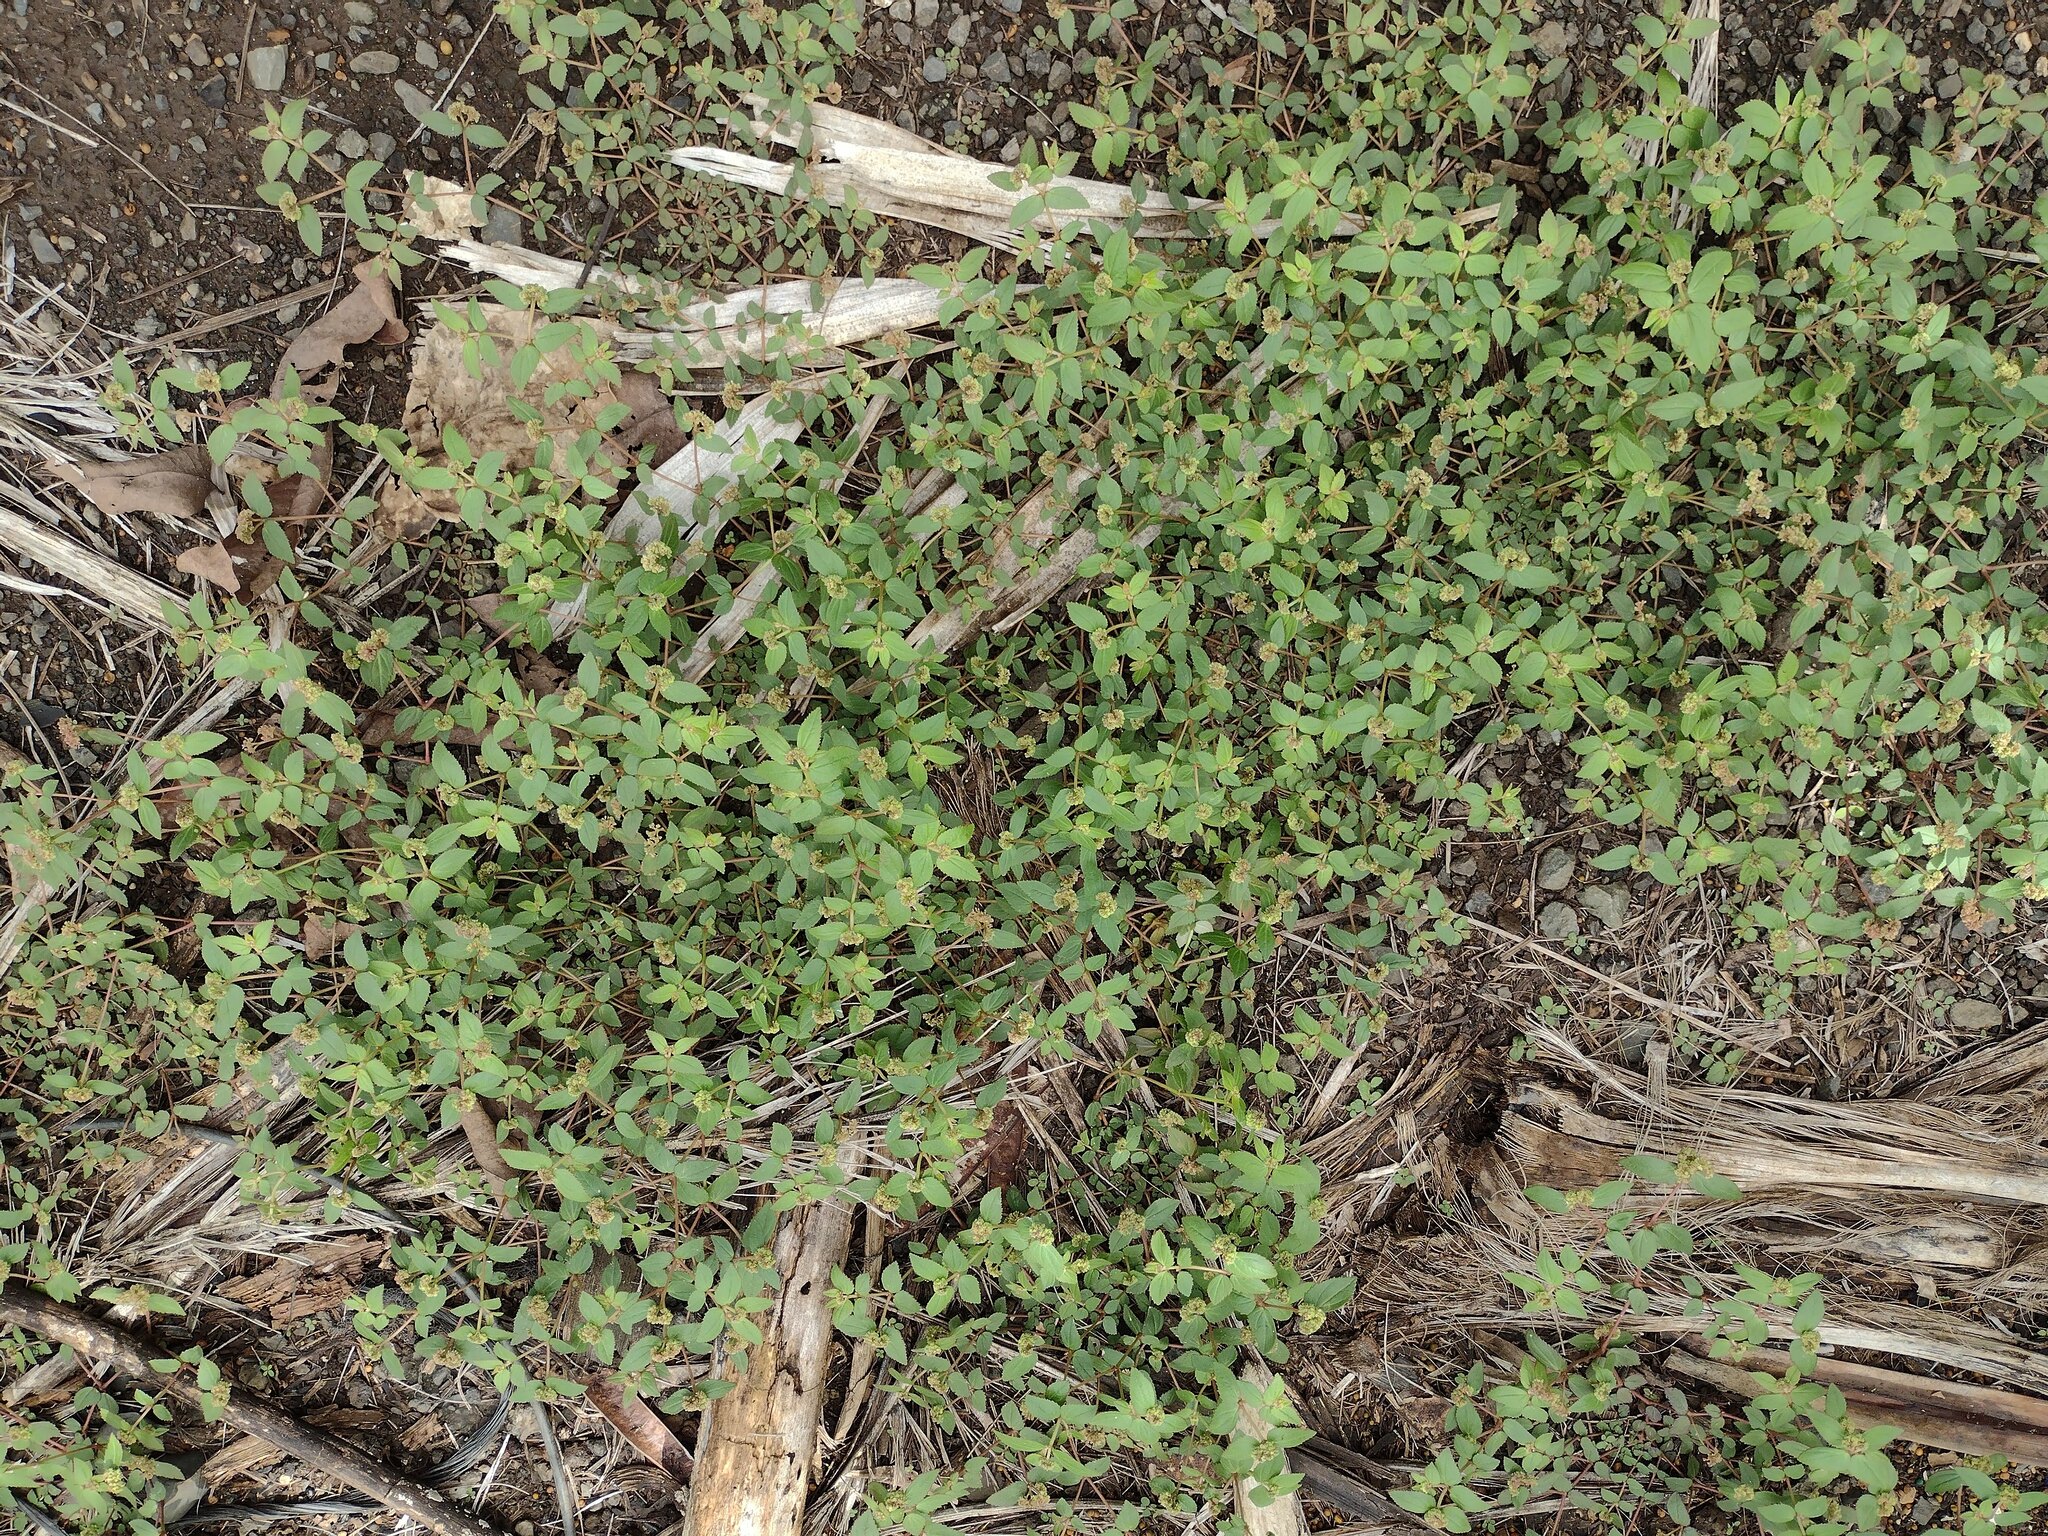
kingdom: Plantae
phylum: Tracheophyta
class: Magnoliopsida
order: Malpighiales
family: Euphorbiaceae
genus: Euphorbia
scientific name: Euphorbia ophthalmica
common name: Florida hammock sandmat
